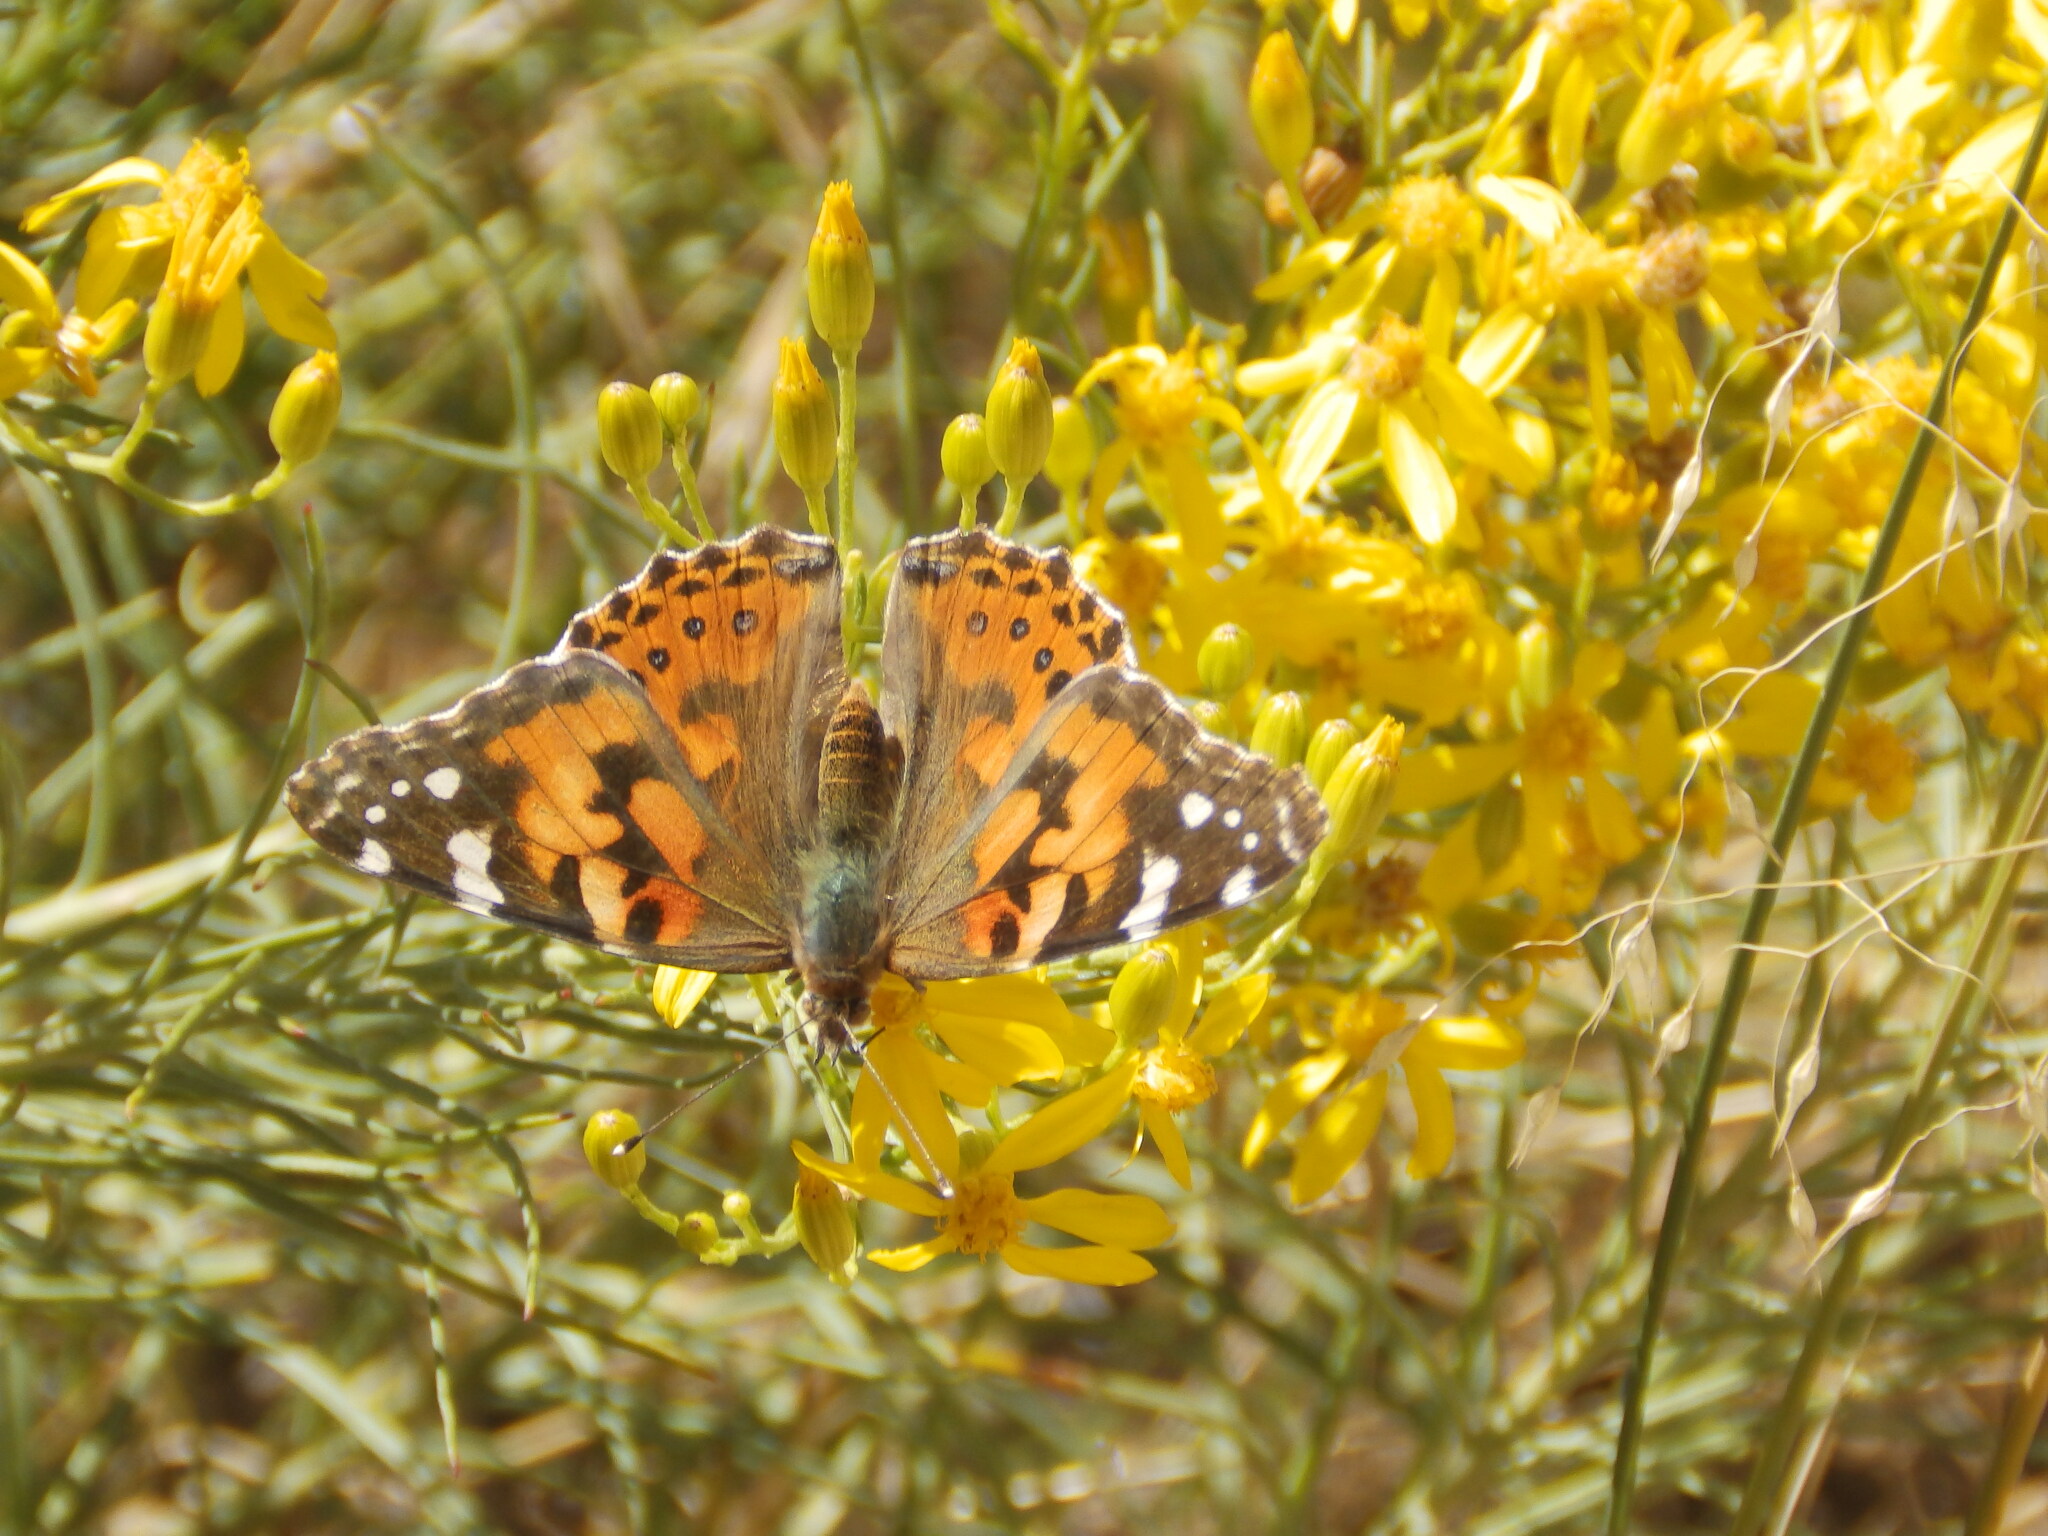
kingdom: Animalia
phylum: Arthropoda
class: Insecta
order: Lepidoptera
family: Nymphalidae
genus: Vanessa
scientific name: Vanessa cardui
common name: Painted lady
